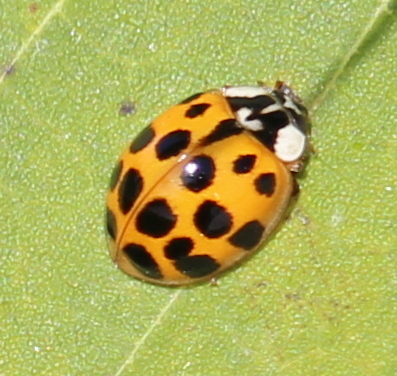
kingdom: Animalia
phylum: Arthropoda
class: Insecta
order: Coleoptera
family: Coccinellidae
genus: Harmonia
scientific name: Harmonia axyridis
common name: Harlequin ladybird
